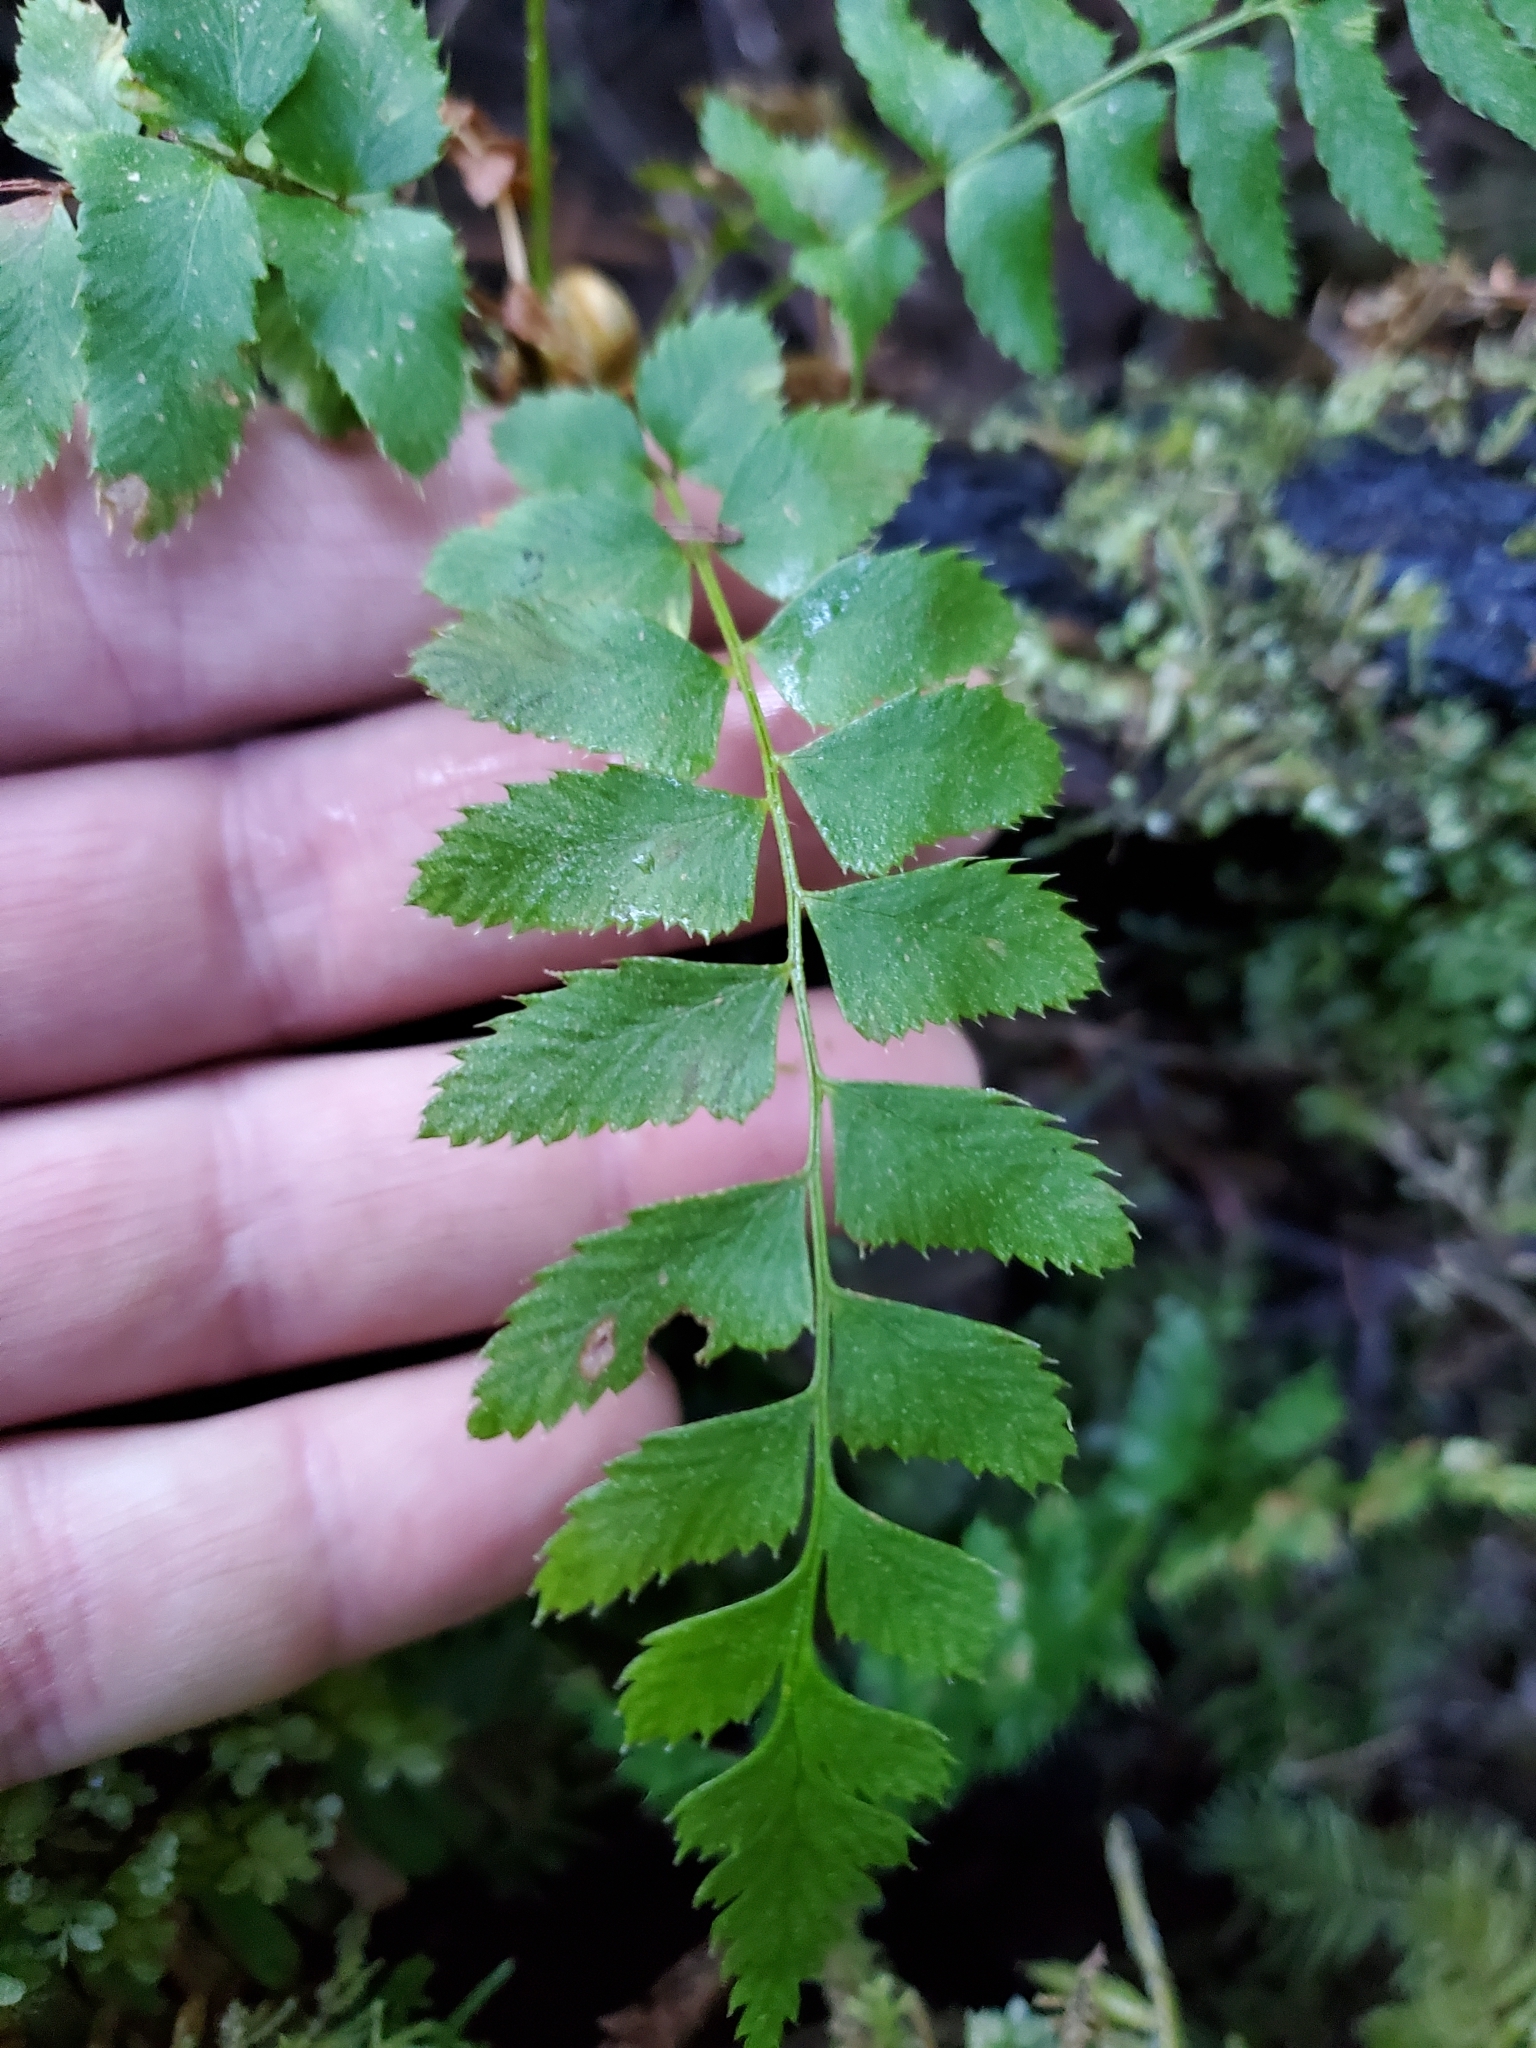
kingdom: Plantae
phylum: Tracheophyta
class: Polypodiopsida
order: Polypodiales
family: Dryopteridaceae
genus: Polystichum
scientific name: Polystichum munitum
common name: Western sword-fern
